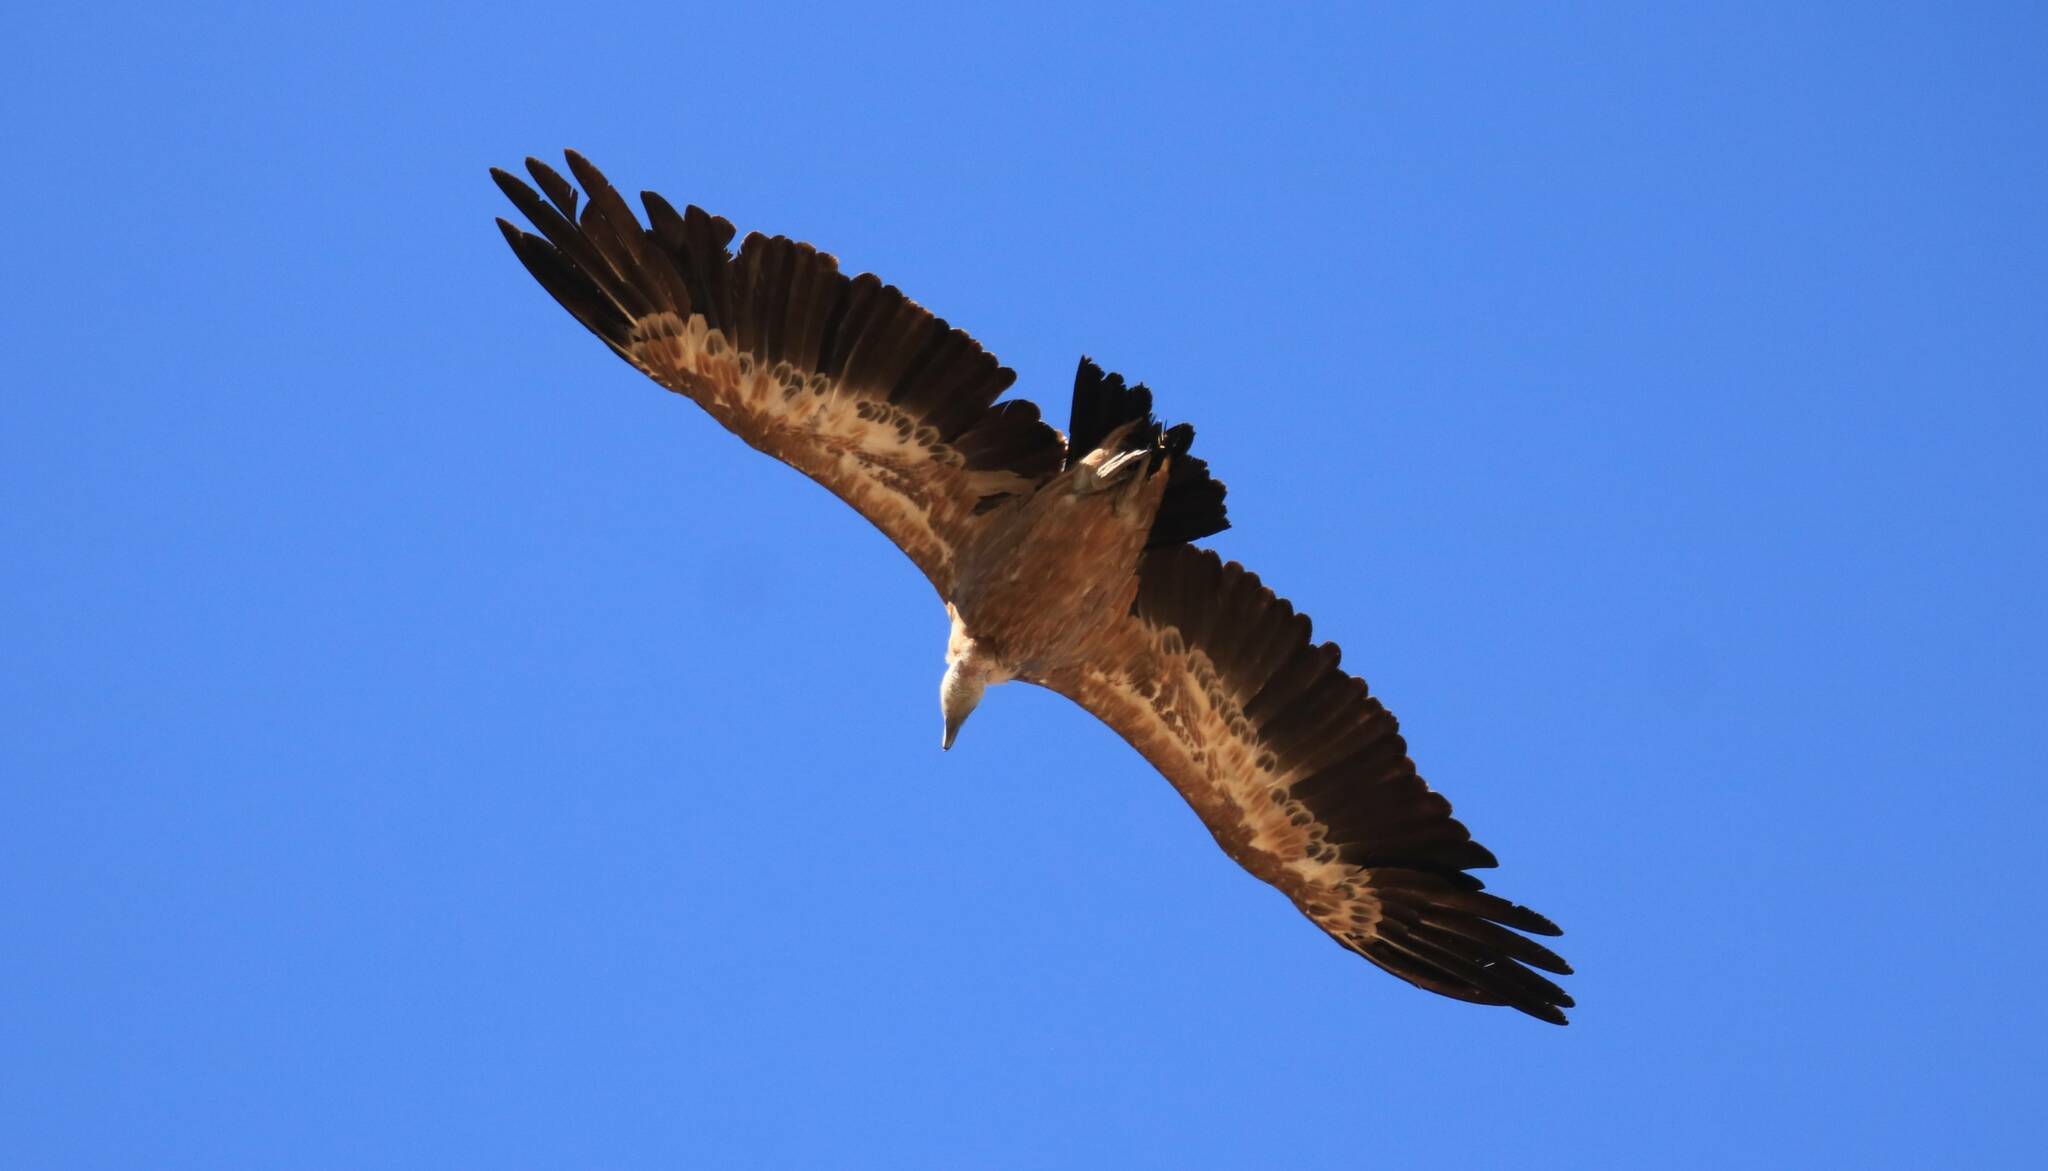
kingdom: Animalia
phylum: Chordata
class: Aves
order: Accipitriformes
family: Accipitridae
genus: Gyps
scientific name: Gyps fulvus
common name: Griffon vulture
